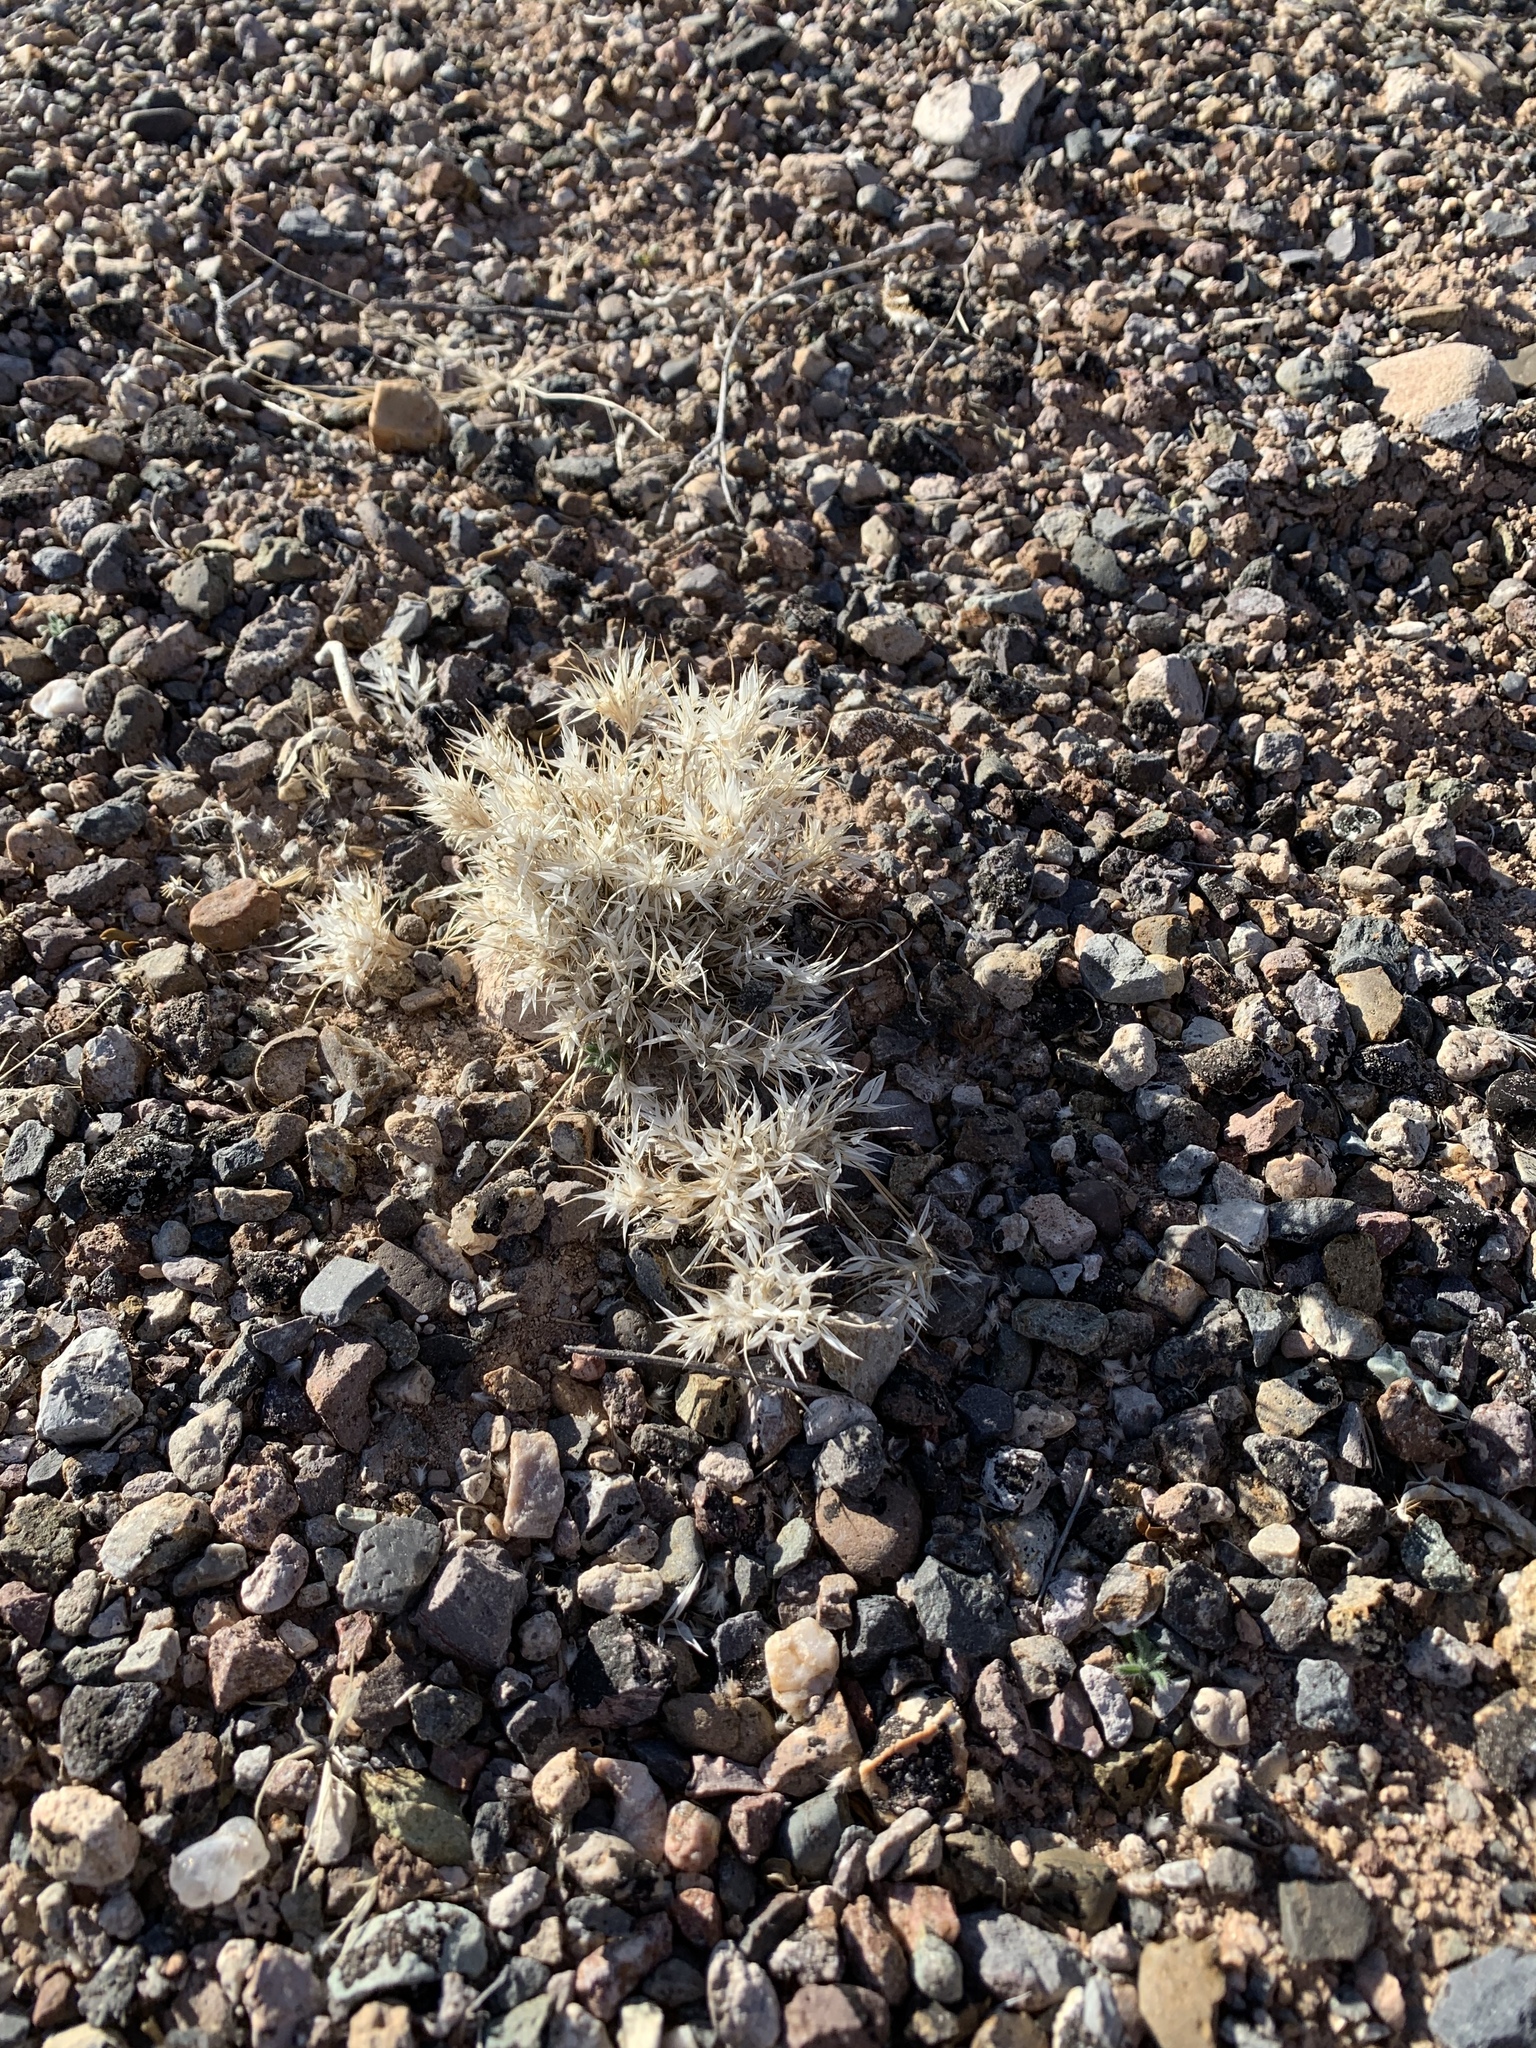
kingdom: Plantae
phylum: Tracheophyta
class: Liliopsida
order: Poales
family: Poaceae
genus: Dasyochloa
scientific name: Dasyochloa pulchella
